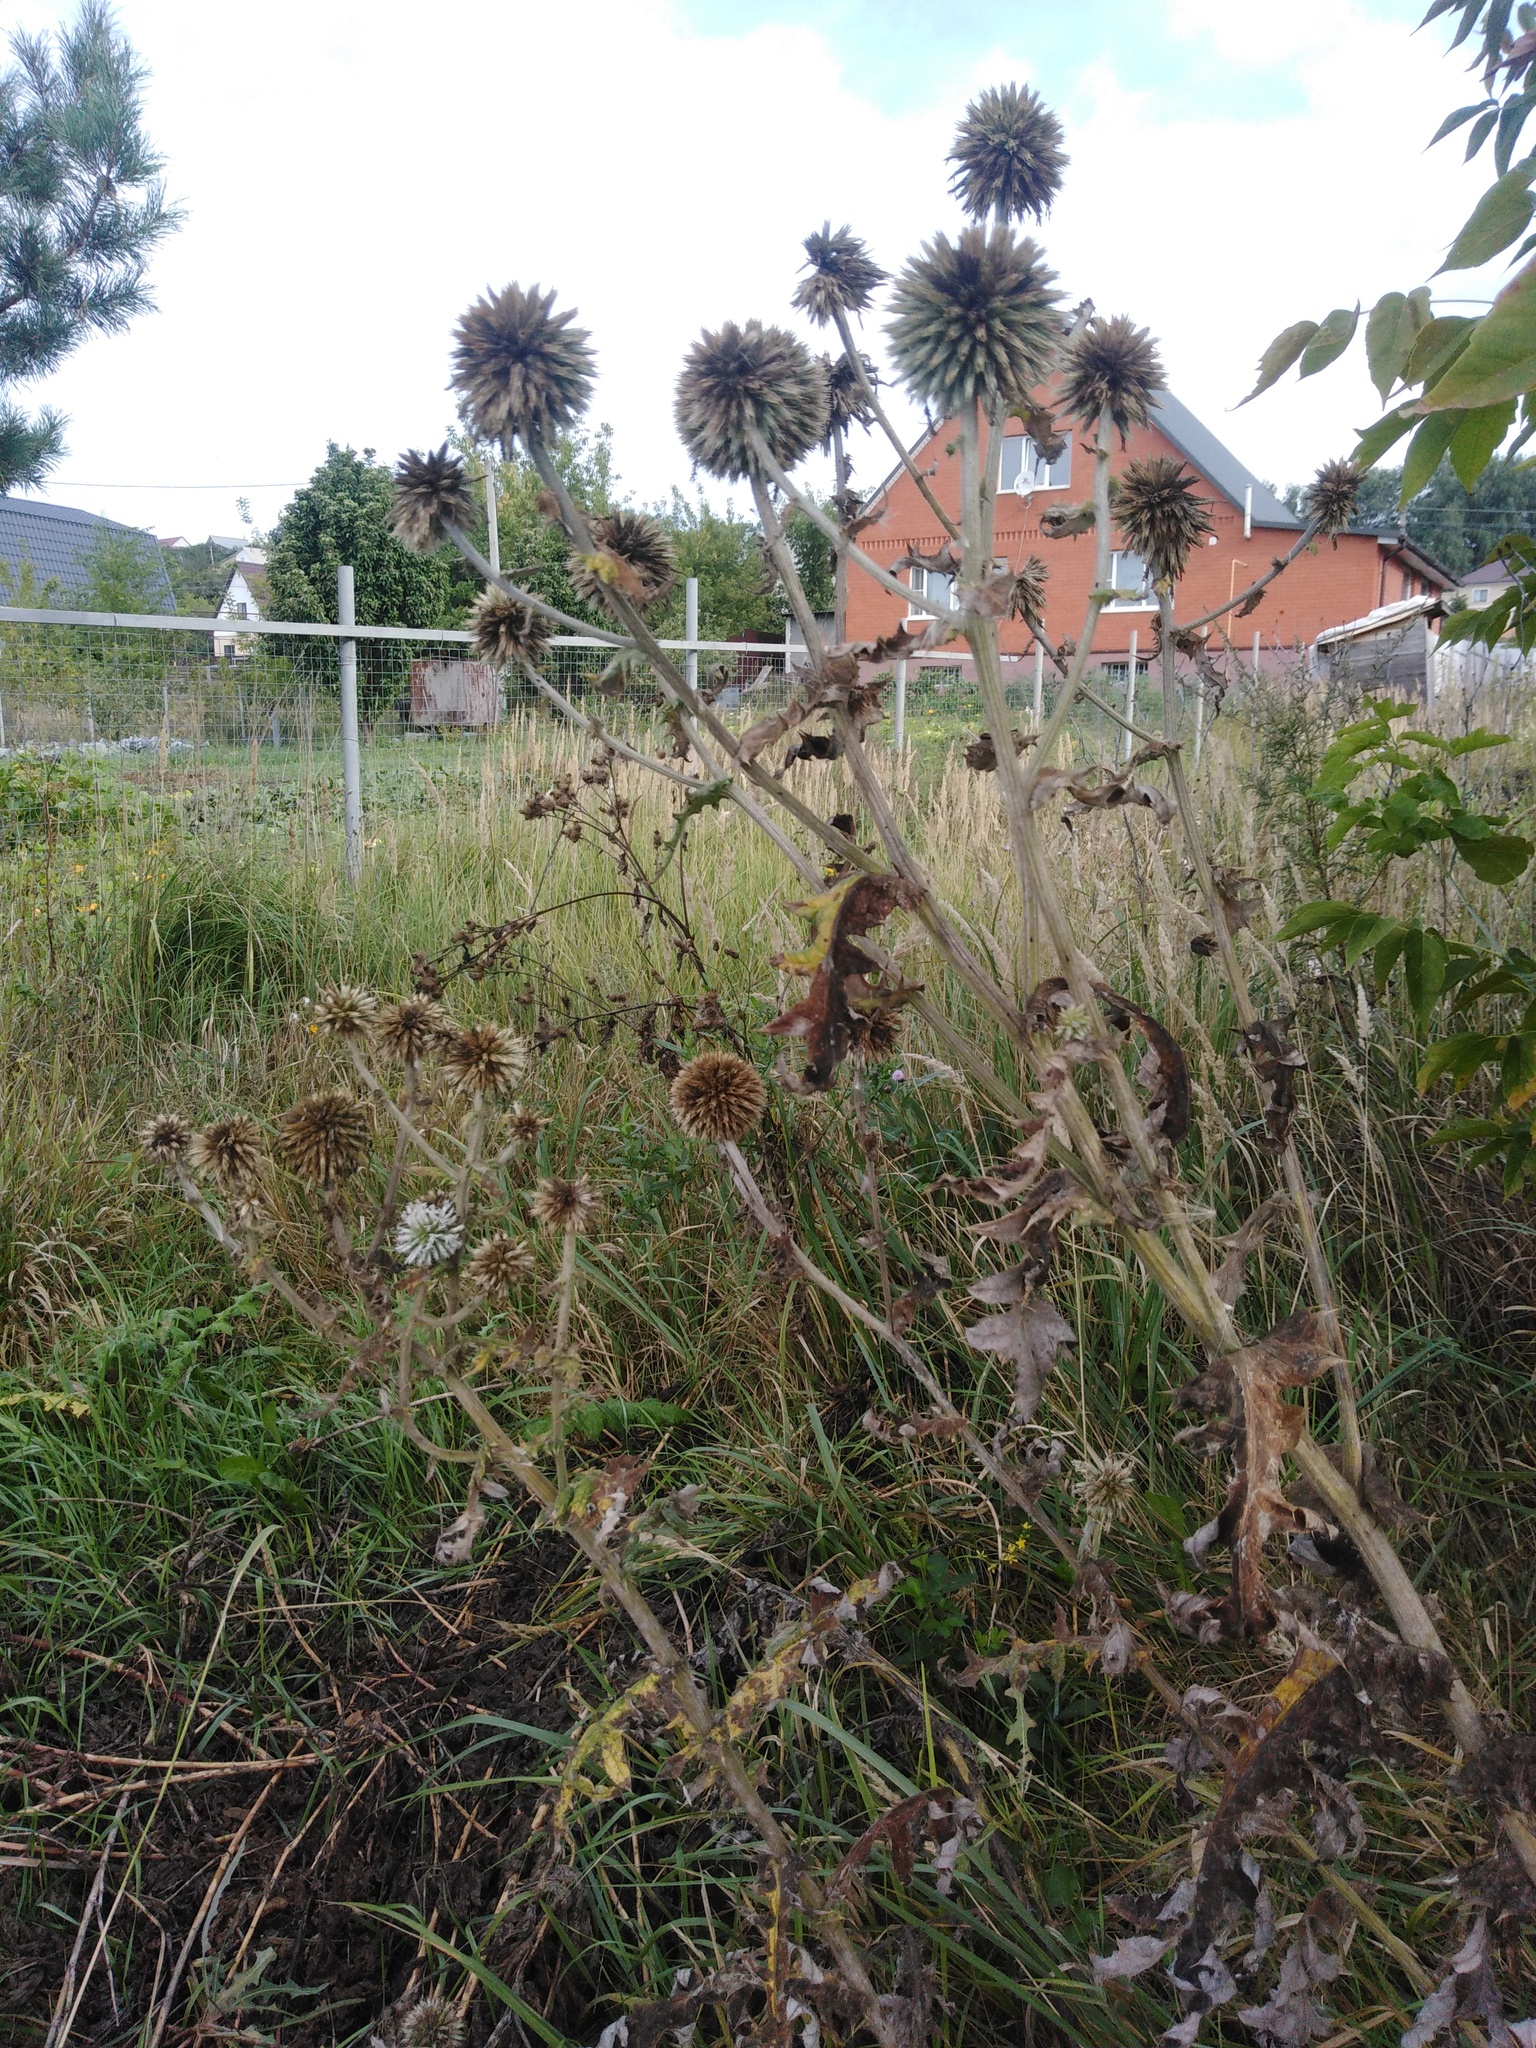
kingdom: Plantae
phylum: Tracheophyta
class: Magnoliopsida
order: Asterales
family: Asteraceae
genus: Echinops
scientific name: Echinops sphaerocephalus
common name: Glandular globe-thistle
